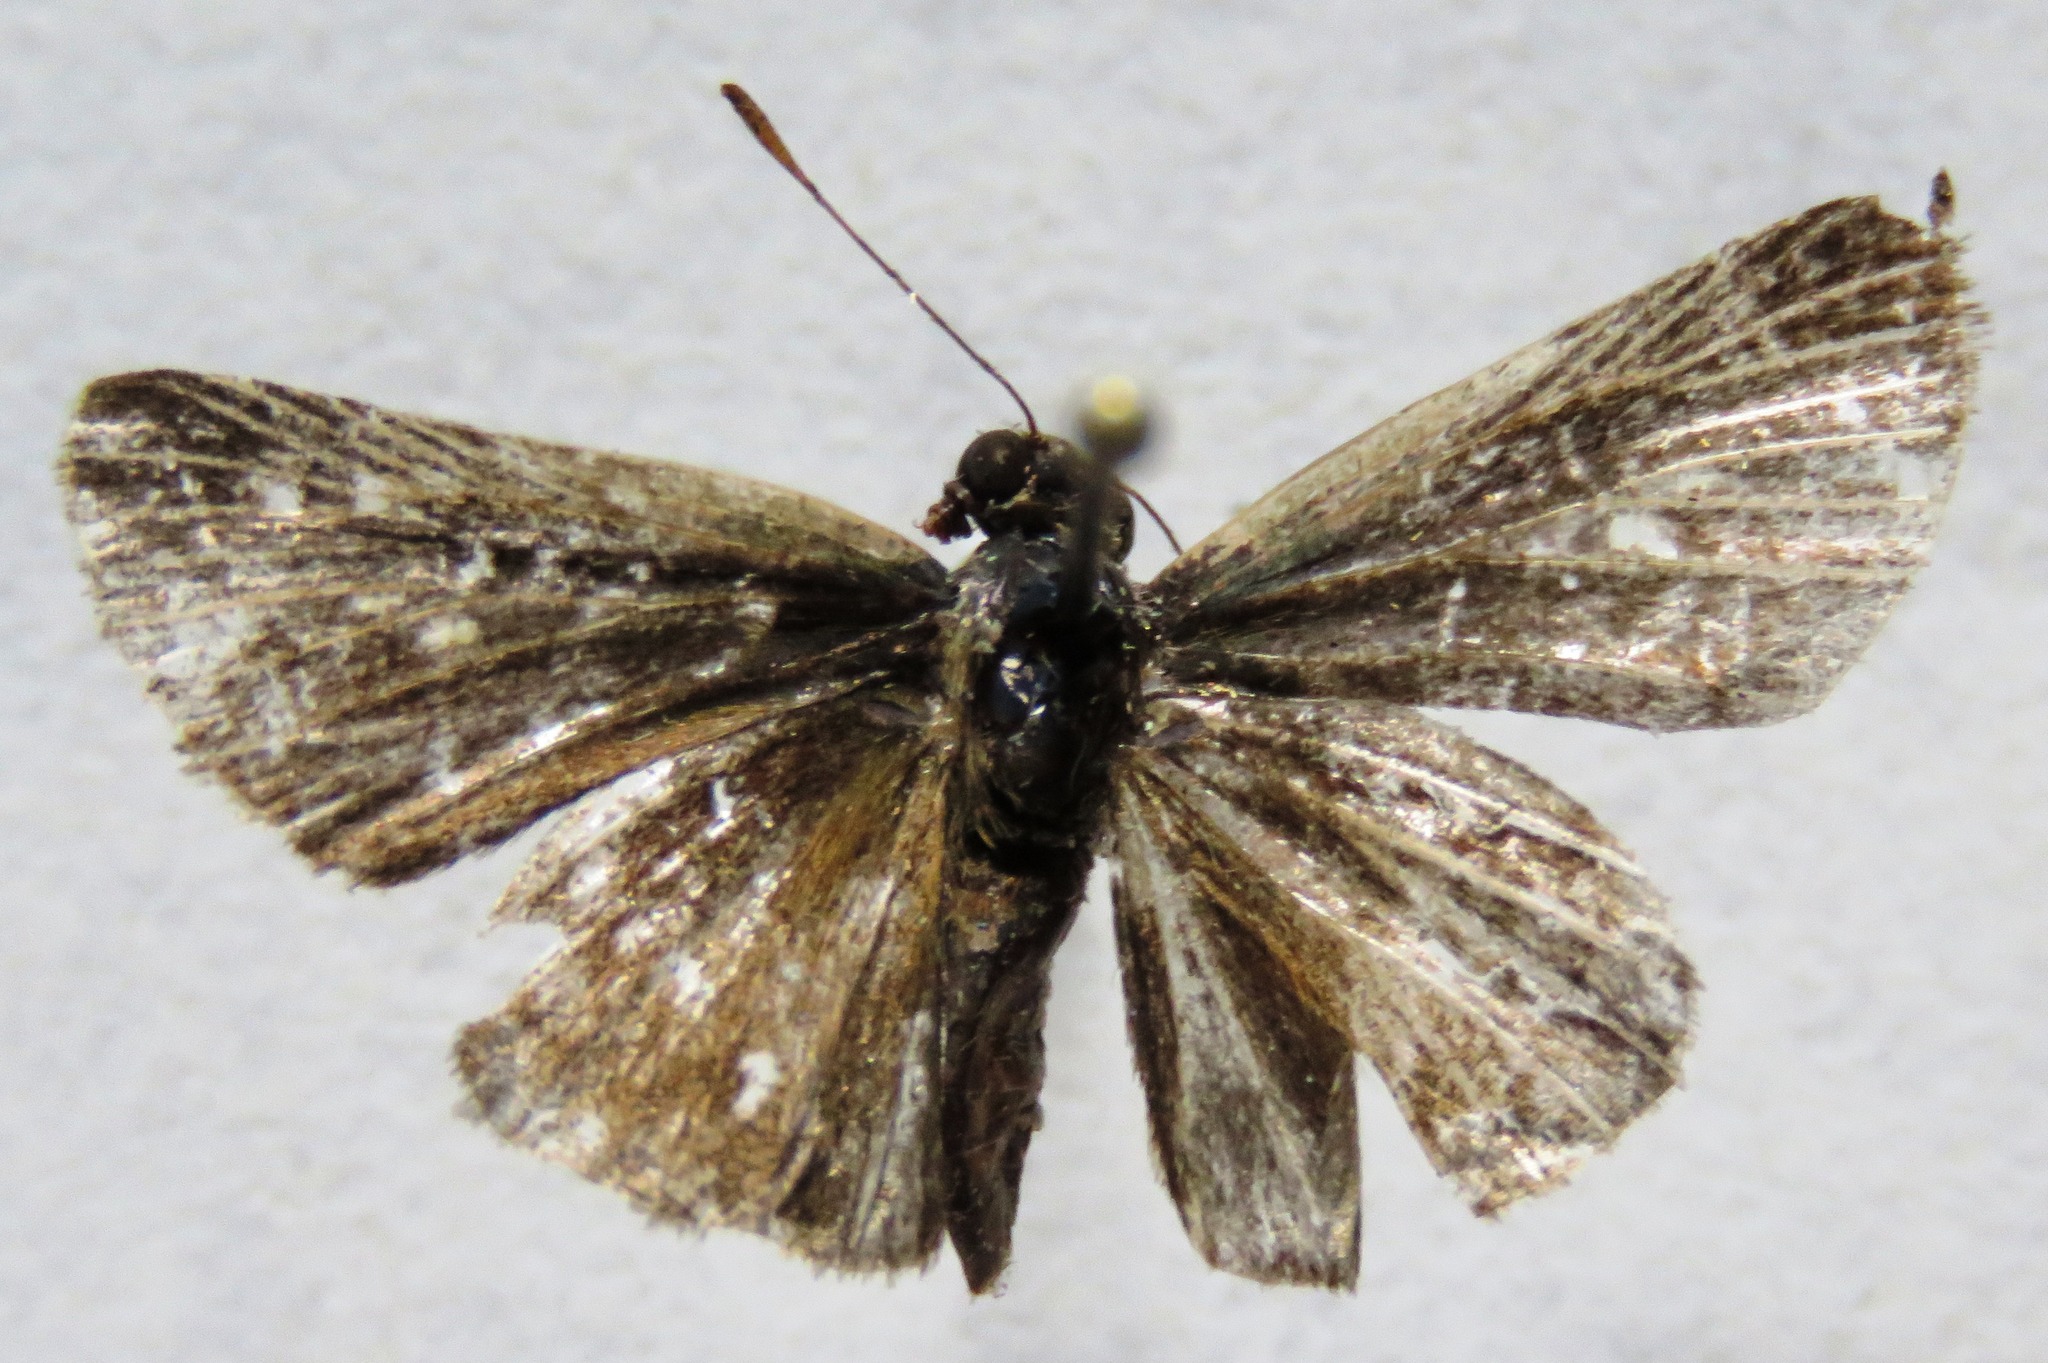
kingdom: Animalia
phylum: Arthropoda
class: Insecta
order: Lepidoptera
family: Hesperiidae
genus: Vehilius
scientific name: Vehilius stictomenes
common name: Pasture skipper
